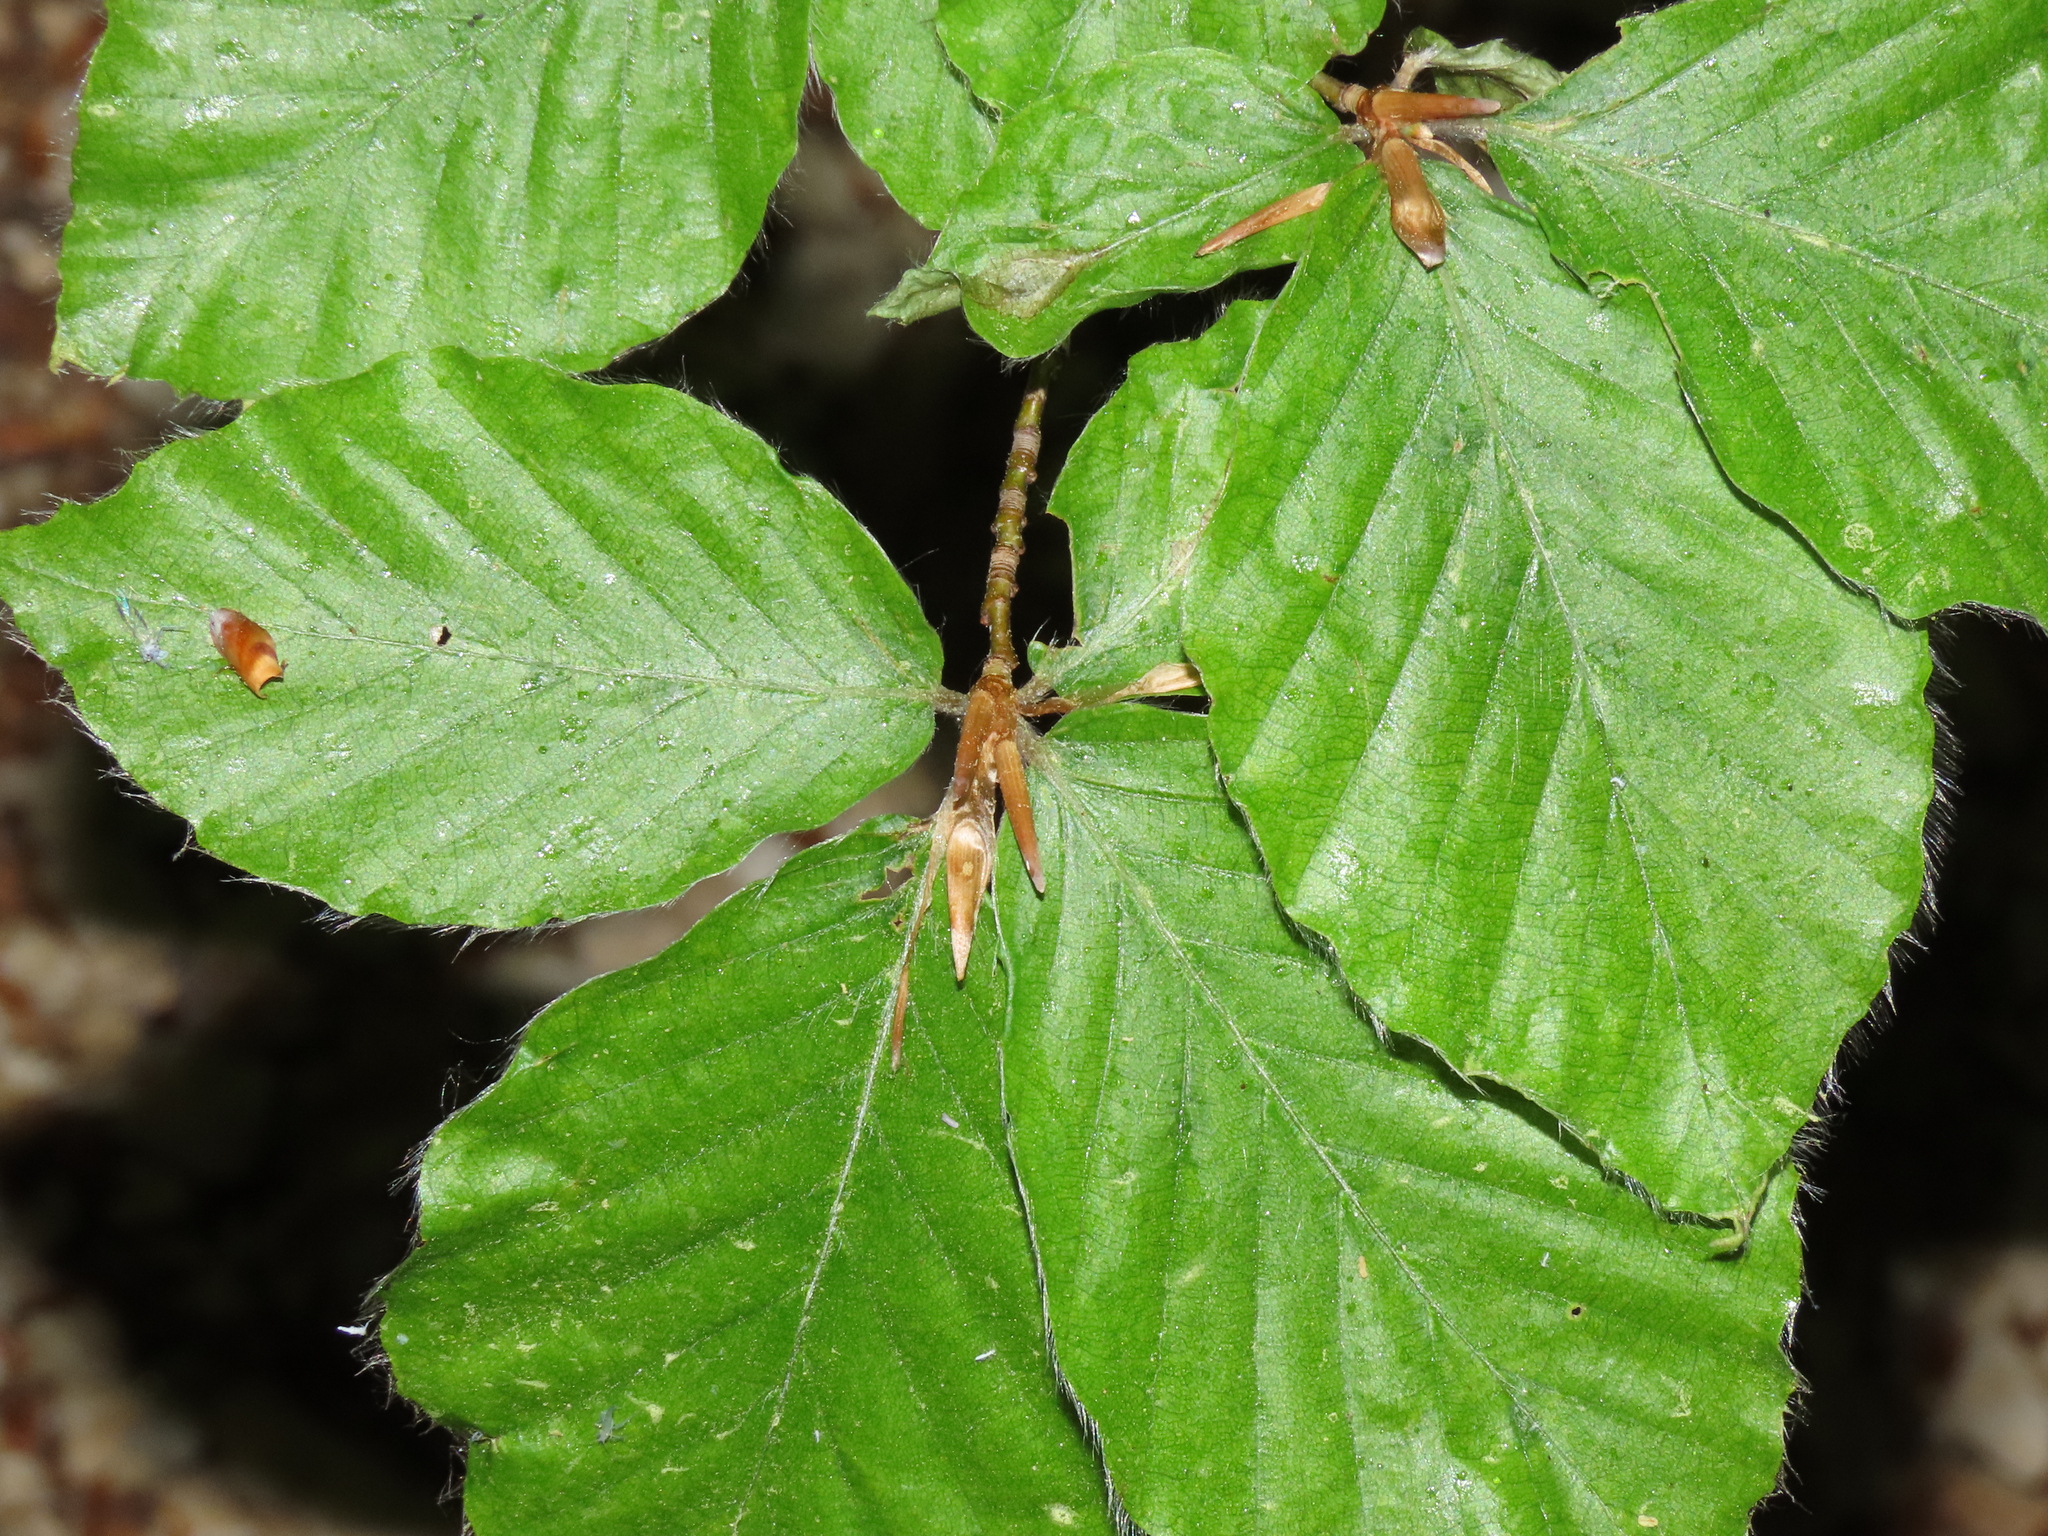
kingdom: Plantae
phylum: Tracheophyta
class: Magnoliopsida
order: Fagales
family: Fagaceae
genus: Fagus
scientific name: Fagus sylvatica
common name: Beech
